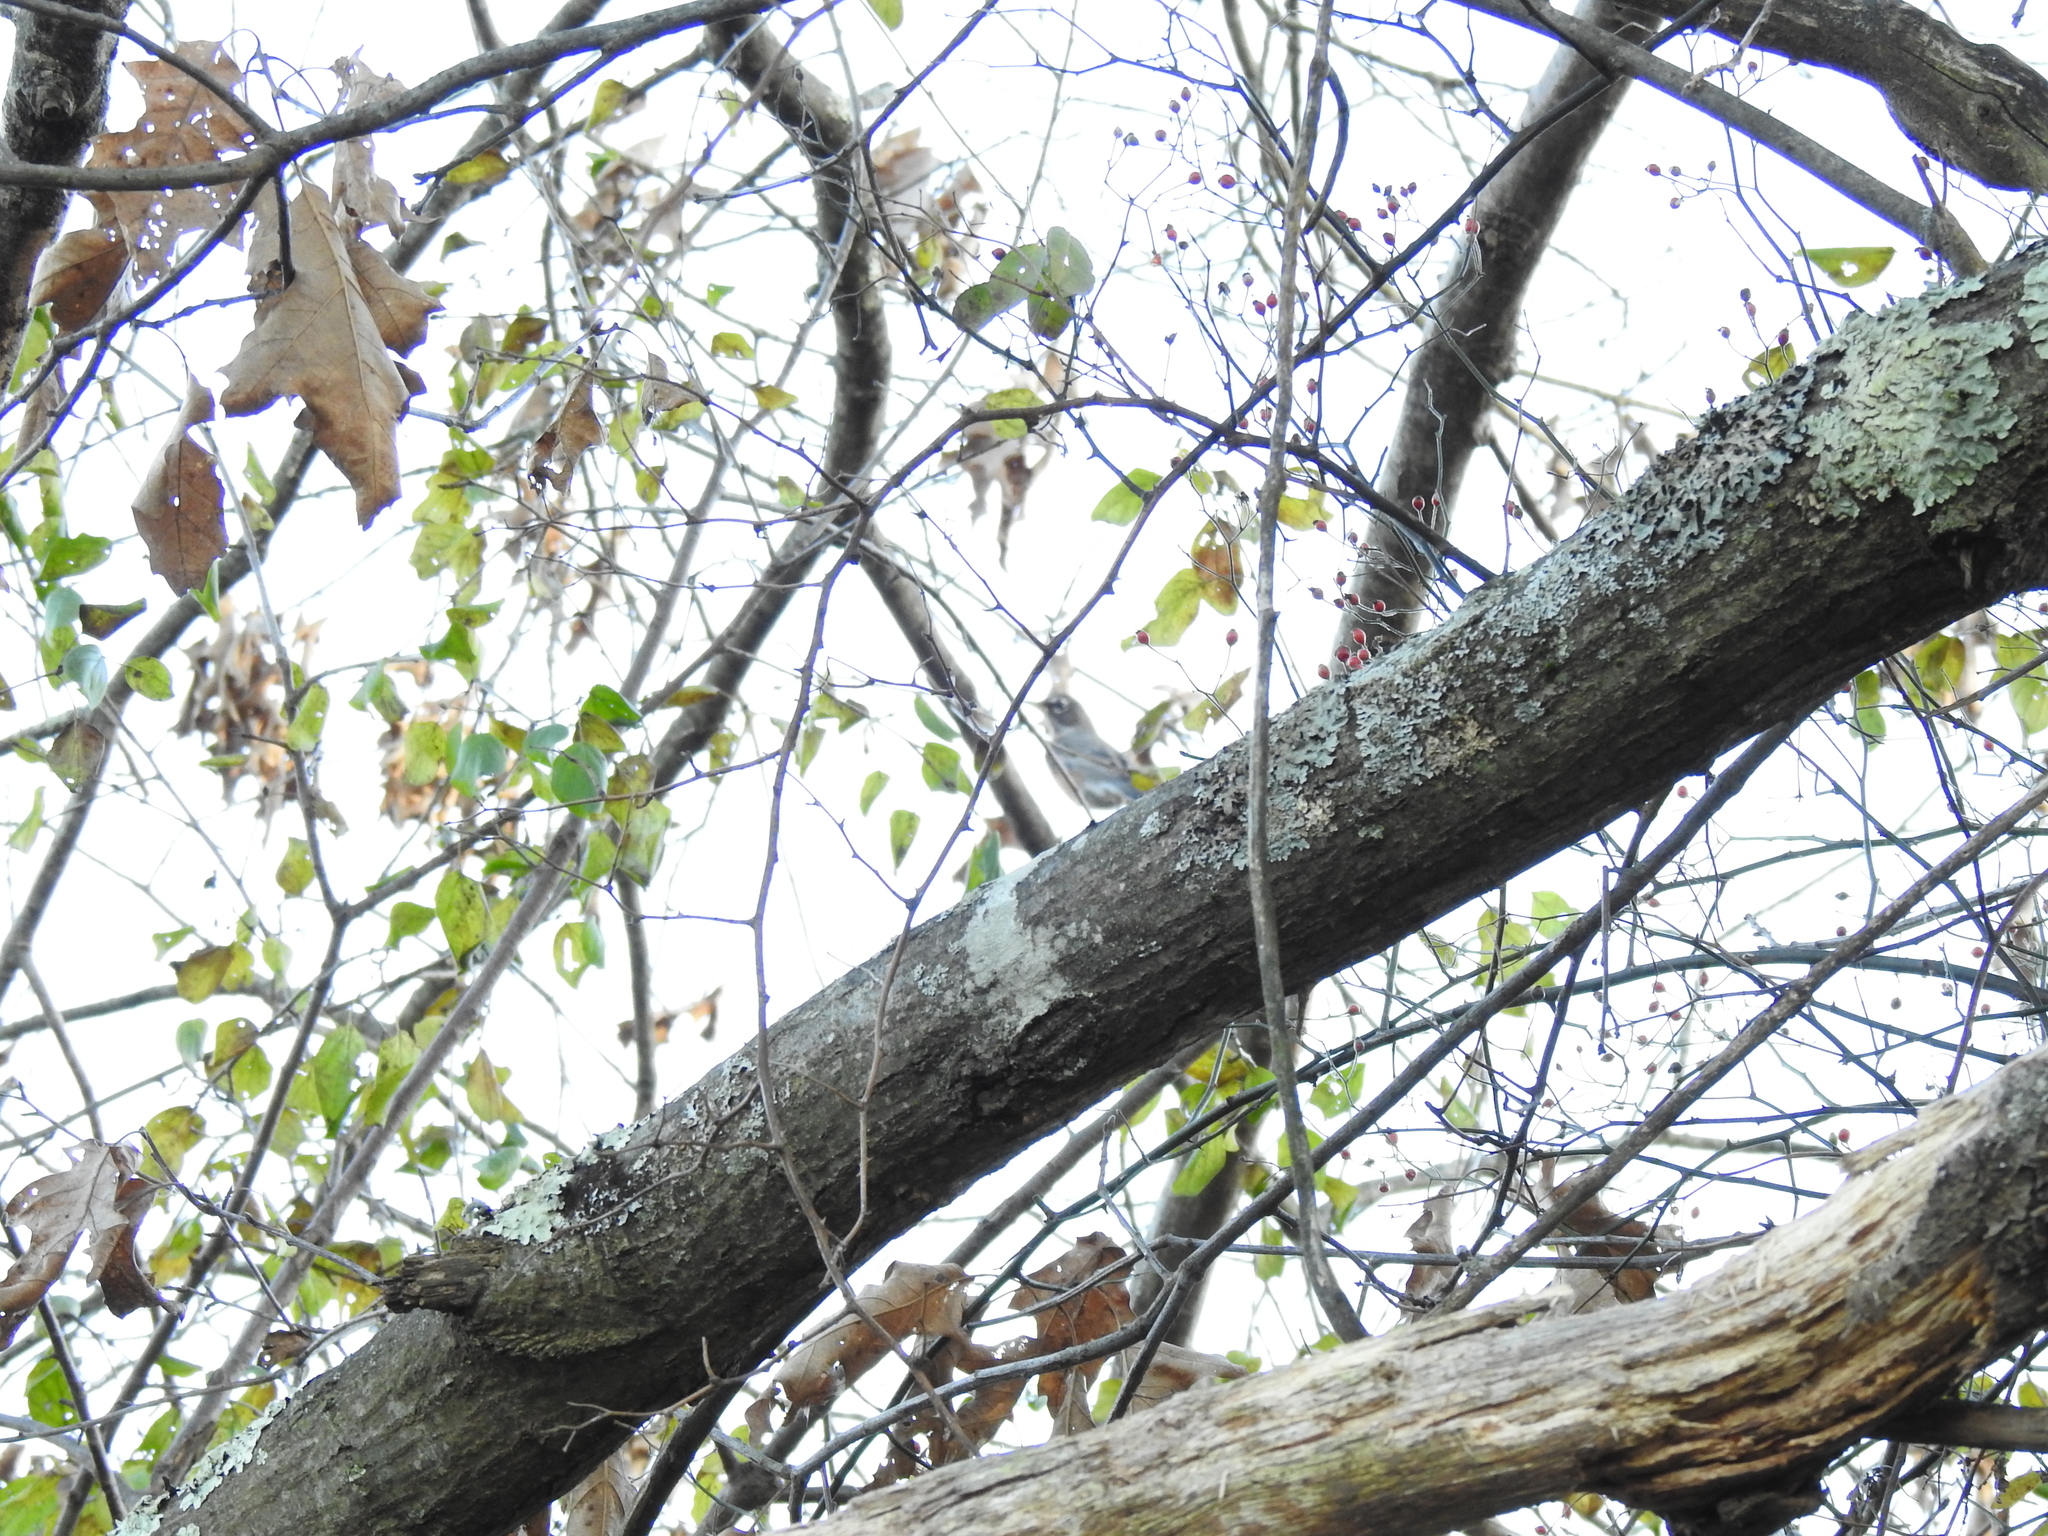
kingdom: Animalia
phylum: Chordata
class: Aves
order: Passeriformes
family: Turdidae
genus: Turdus
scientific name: Turdus migratorius
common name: American robin
